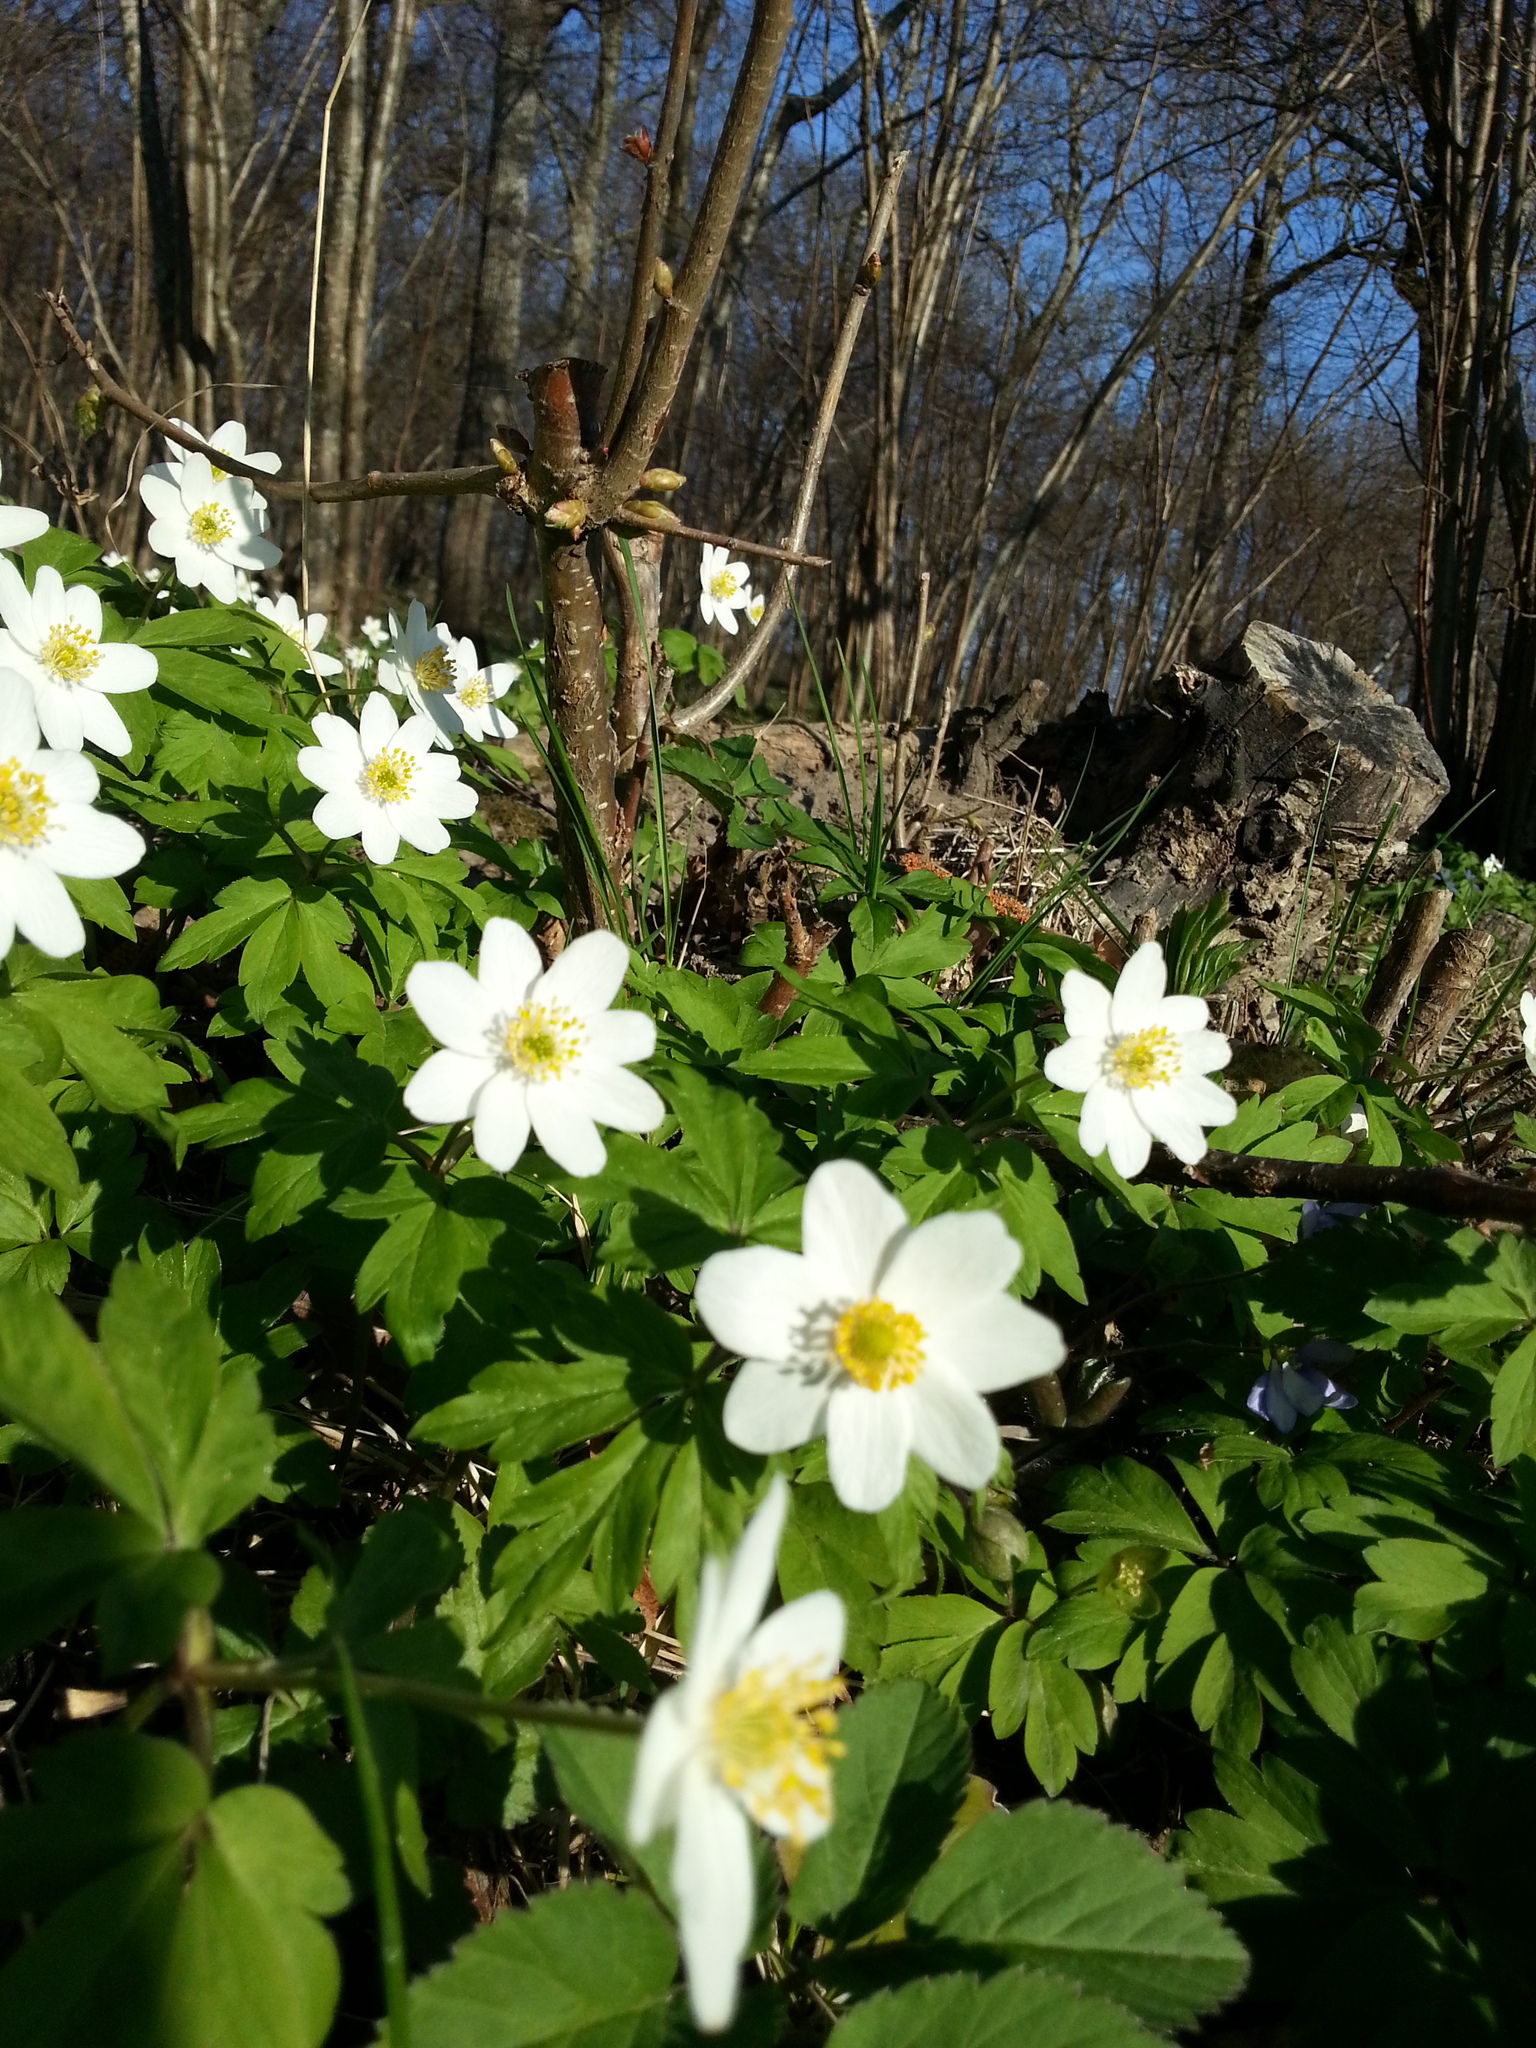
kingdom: Plantae
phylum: Tracheophyta
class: Magnoliopsida
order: Ranunculales
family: Ranunculaceae
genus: Anemone
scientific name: Anemone nemorosa
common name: Wood anemone
